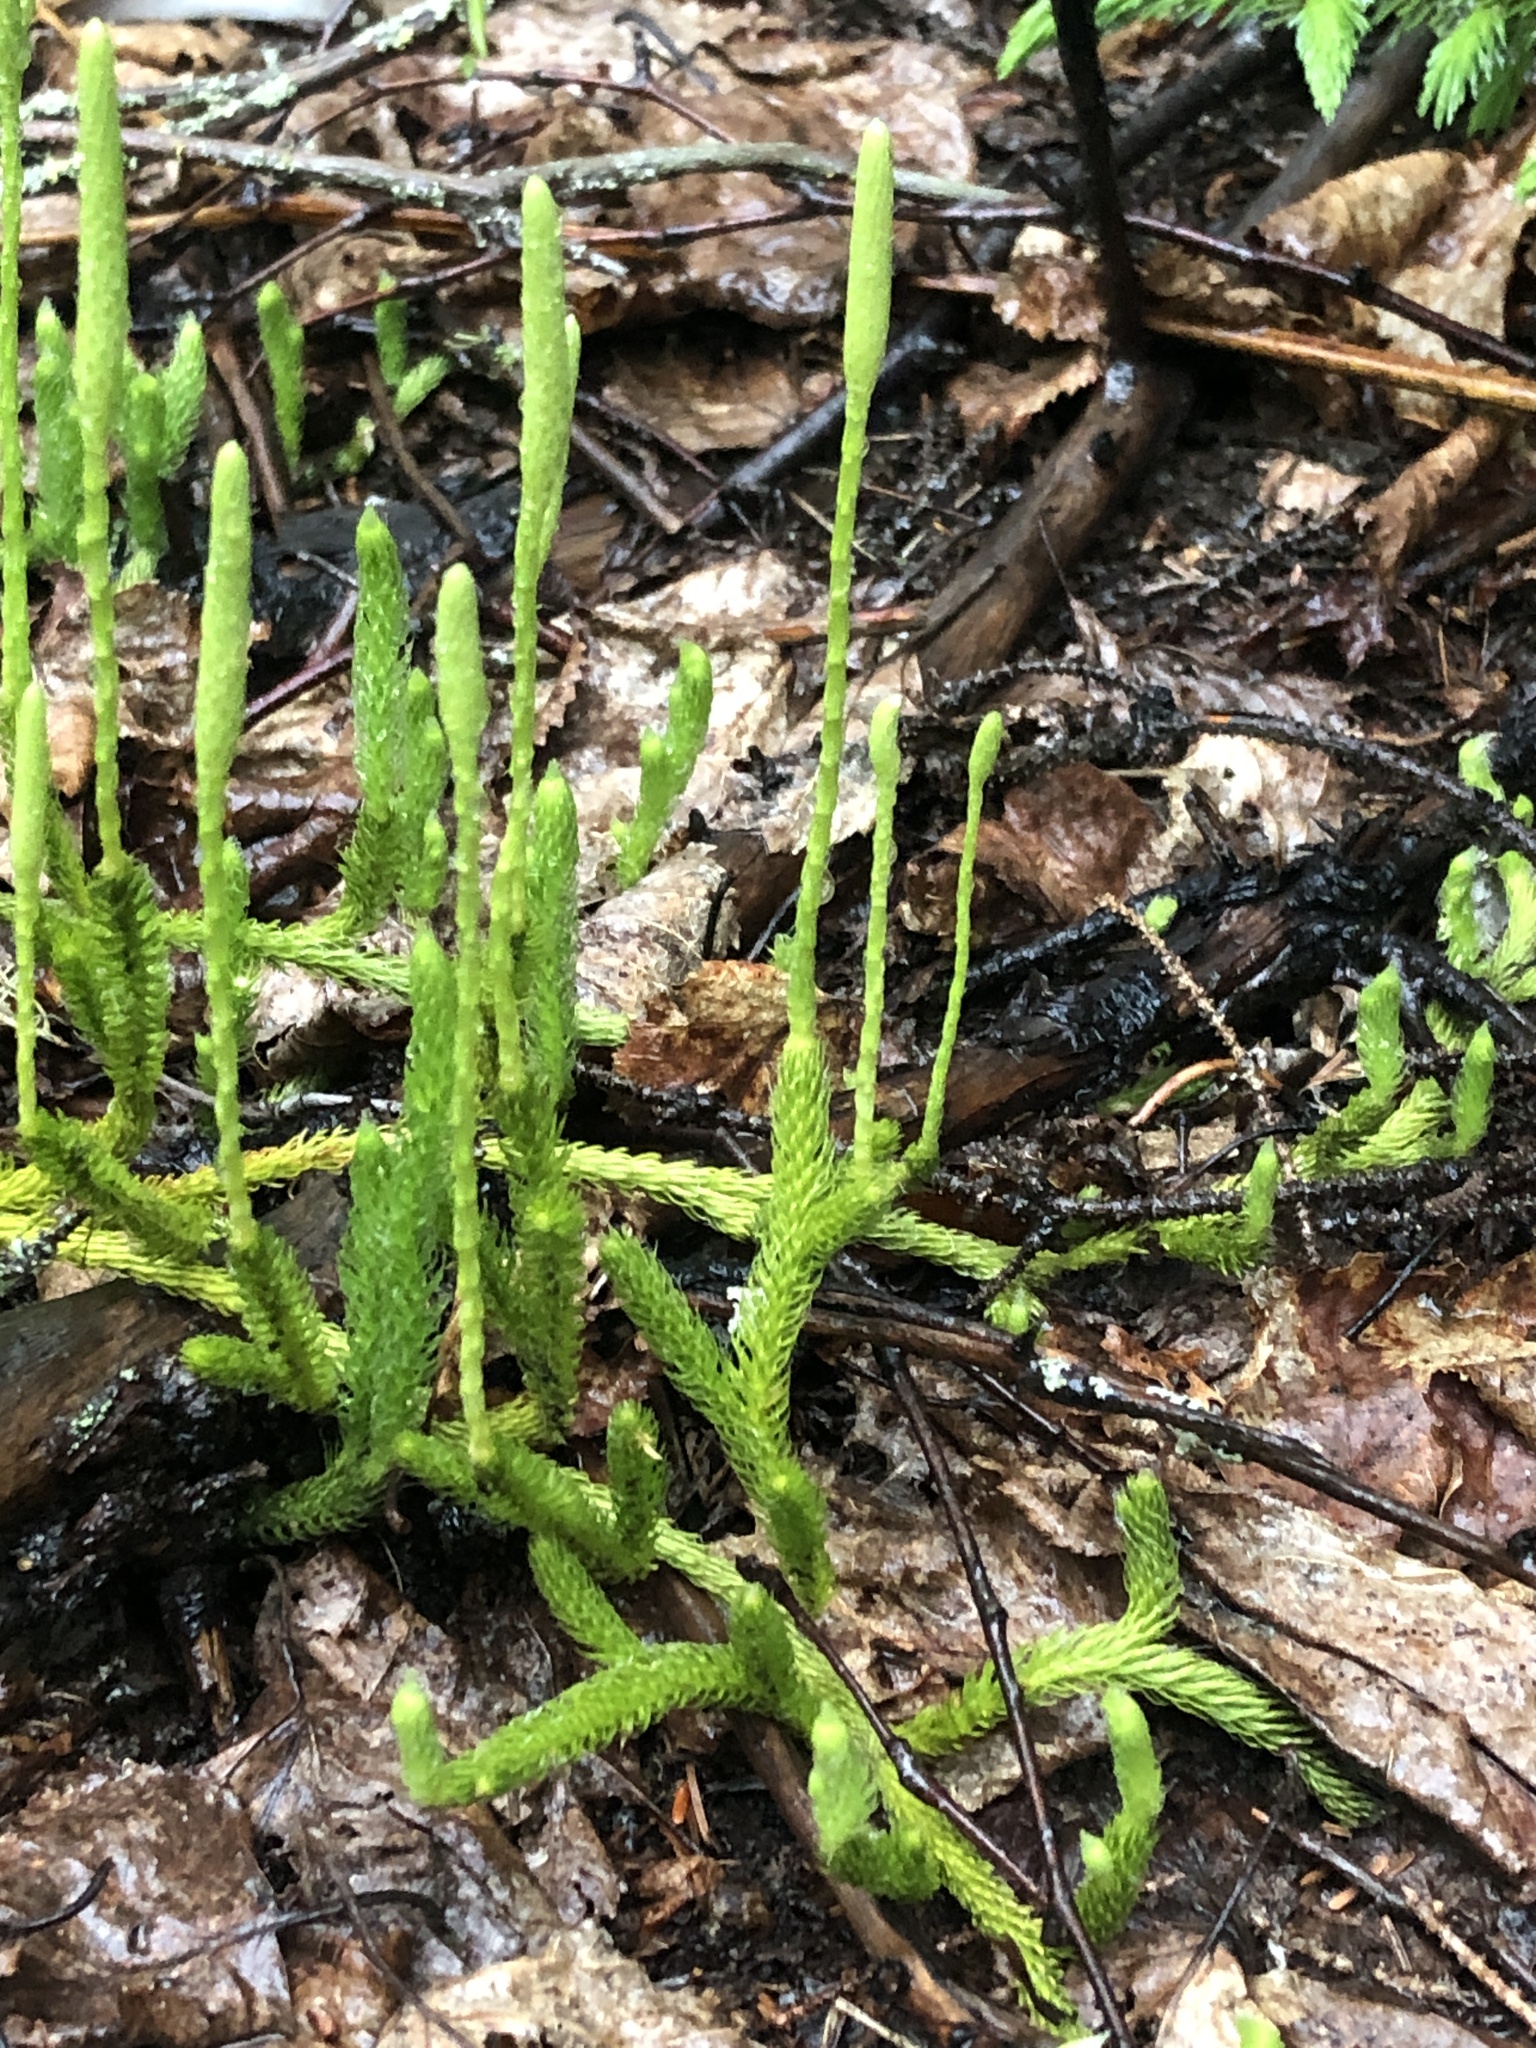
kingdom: Plantae
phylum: Tracheophyta
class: Lycopodiopsida
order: Lycopodiales
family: Lycopodiaceae
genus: Lycopodium
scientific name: Lycopodium lagopus
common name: One-cone clubmoss
